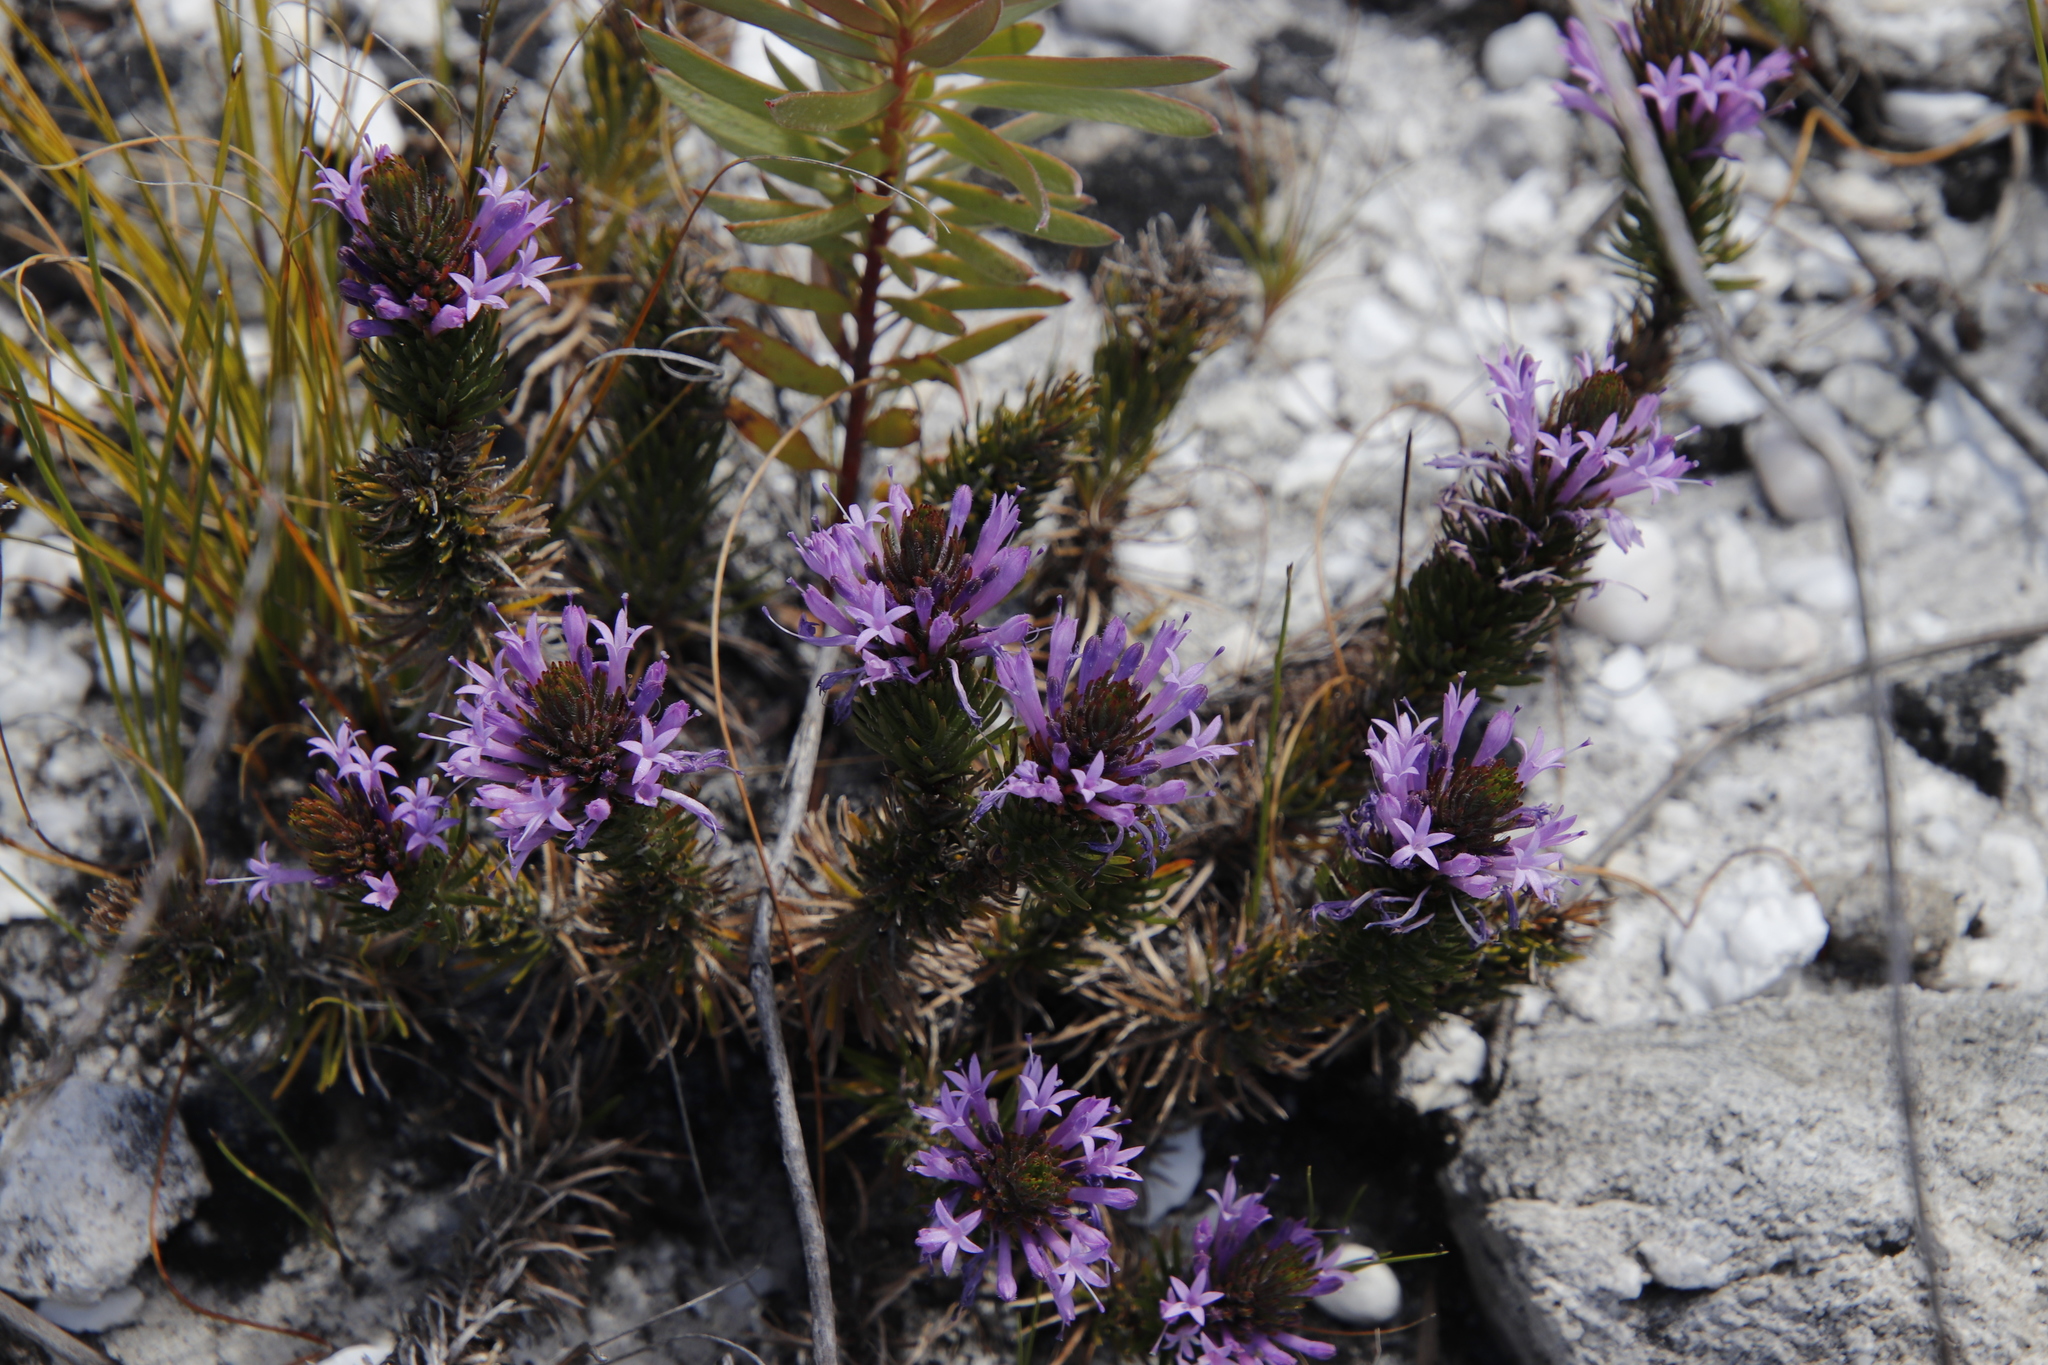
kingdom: Plantae
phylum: Tracheophyta
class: Magnoliopsida
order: Asterales
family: Campanulaceae
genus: Merciera
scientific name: Merciera azurea
